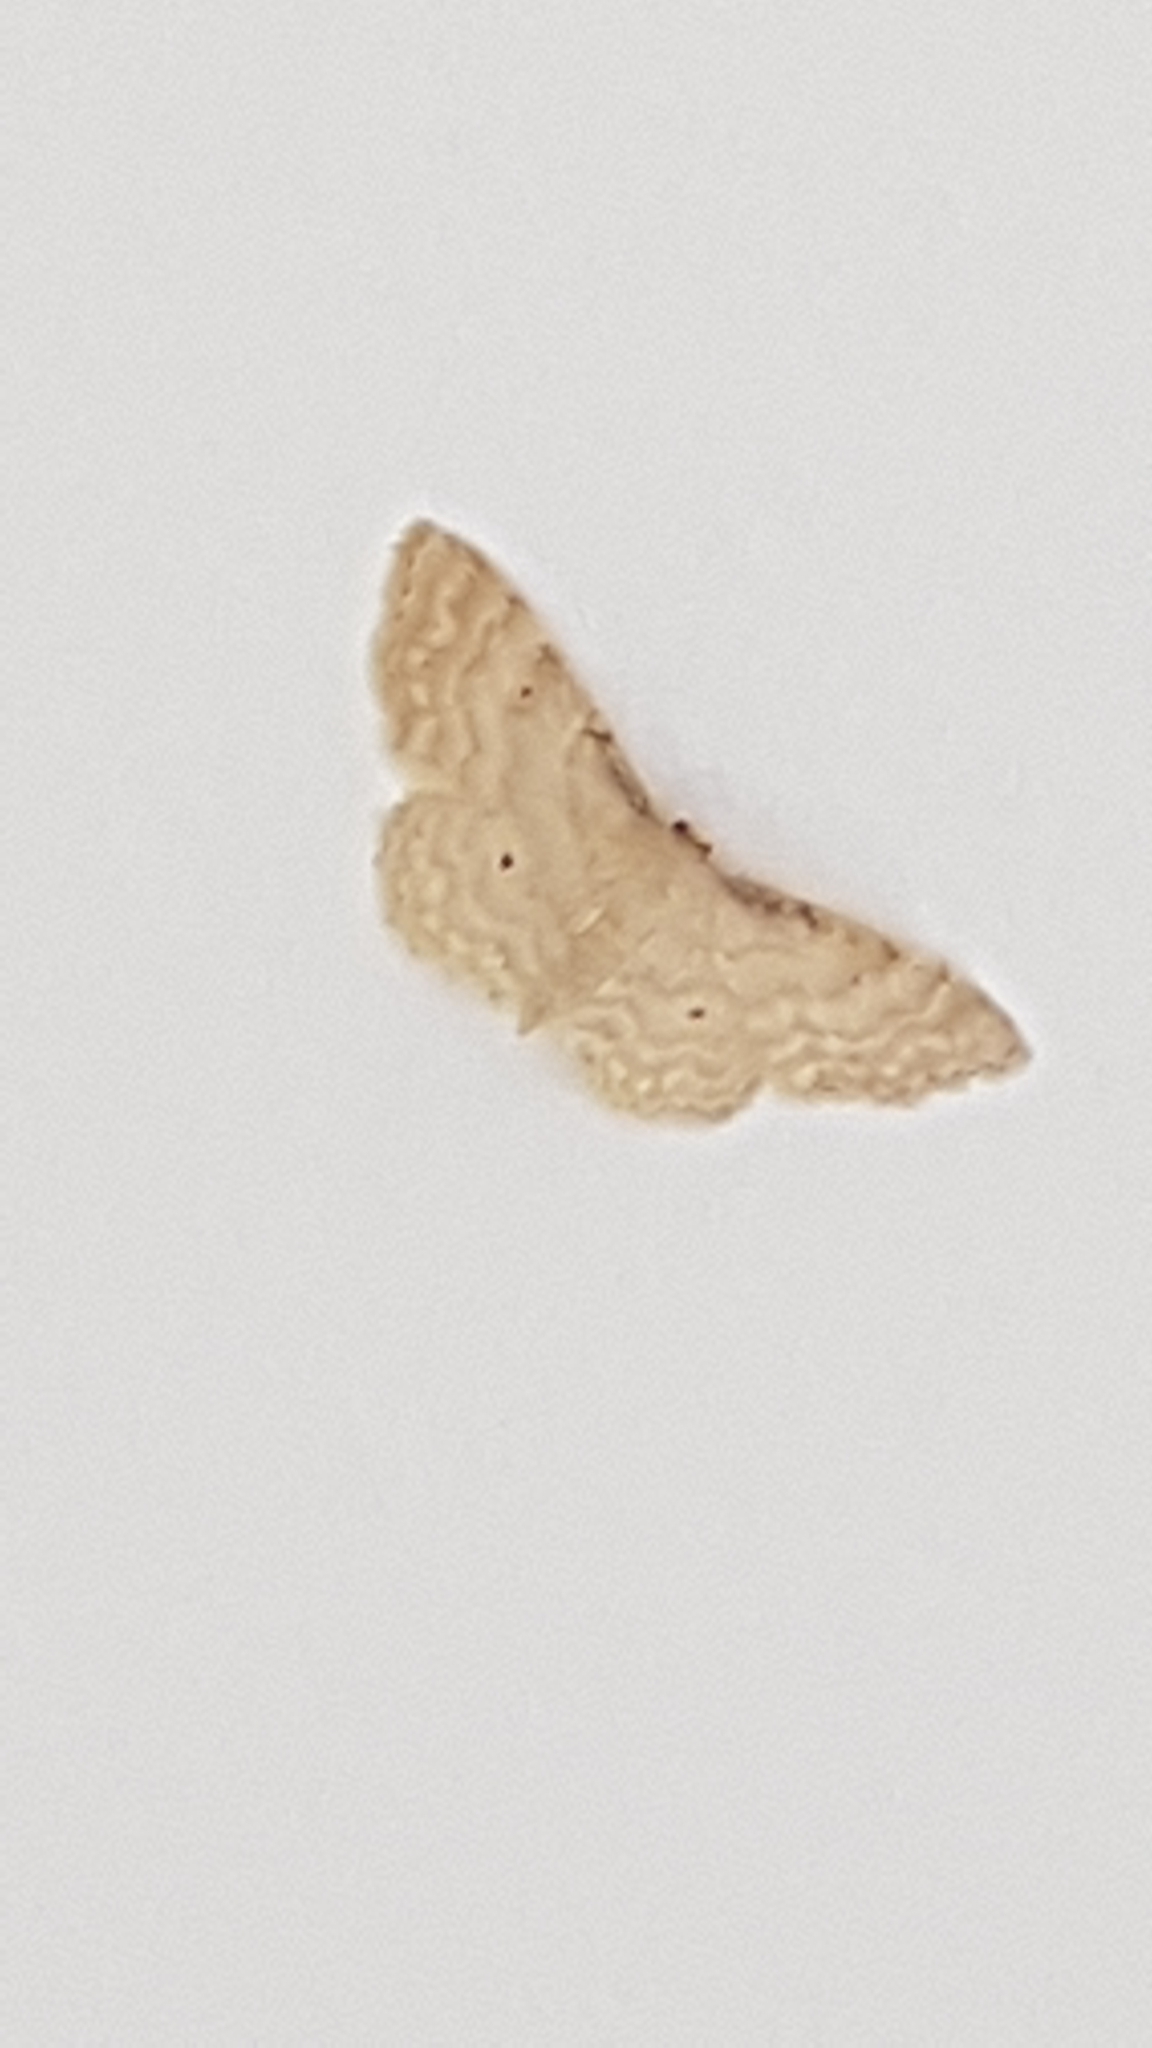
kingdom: Animalia
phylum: Arthropoda
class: Insecta
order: Lepidoptera
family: Geometridae
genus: Idaea
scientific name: Idaea fuscovenosa
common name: Dwarf cream wave
